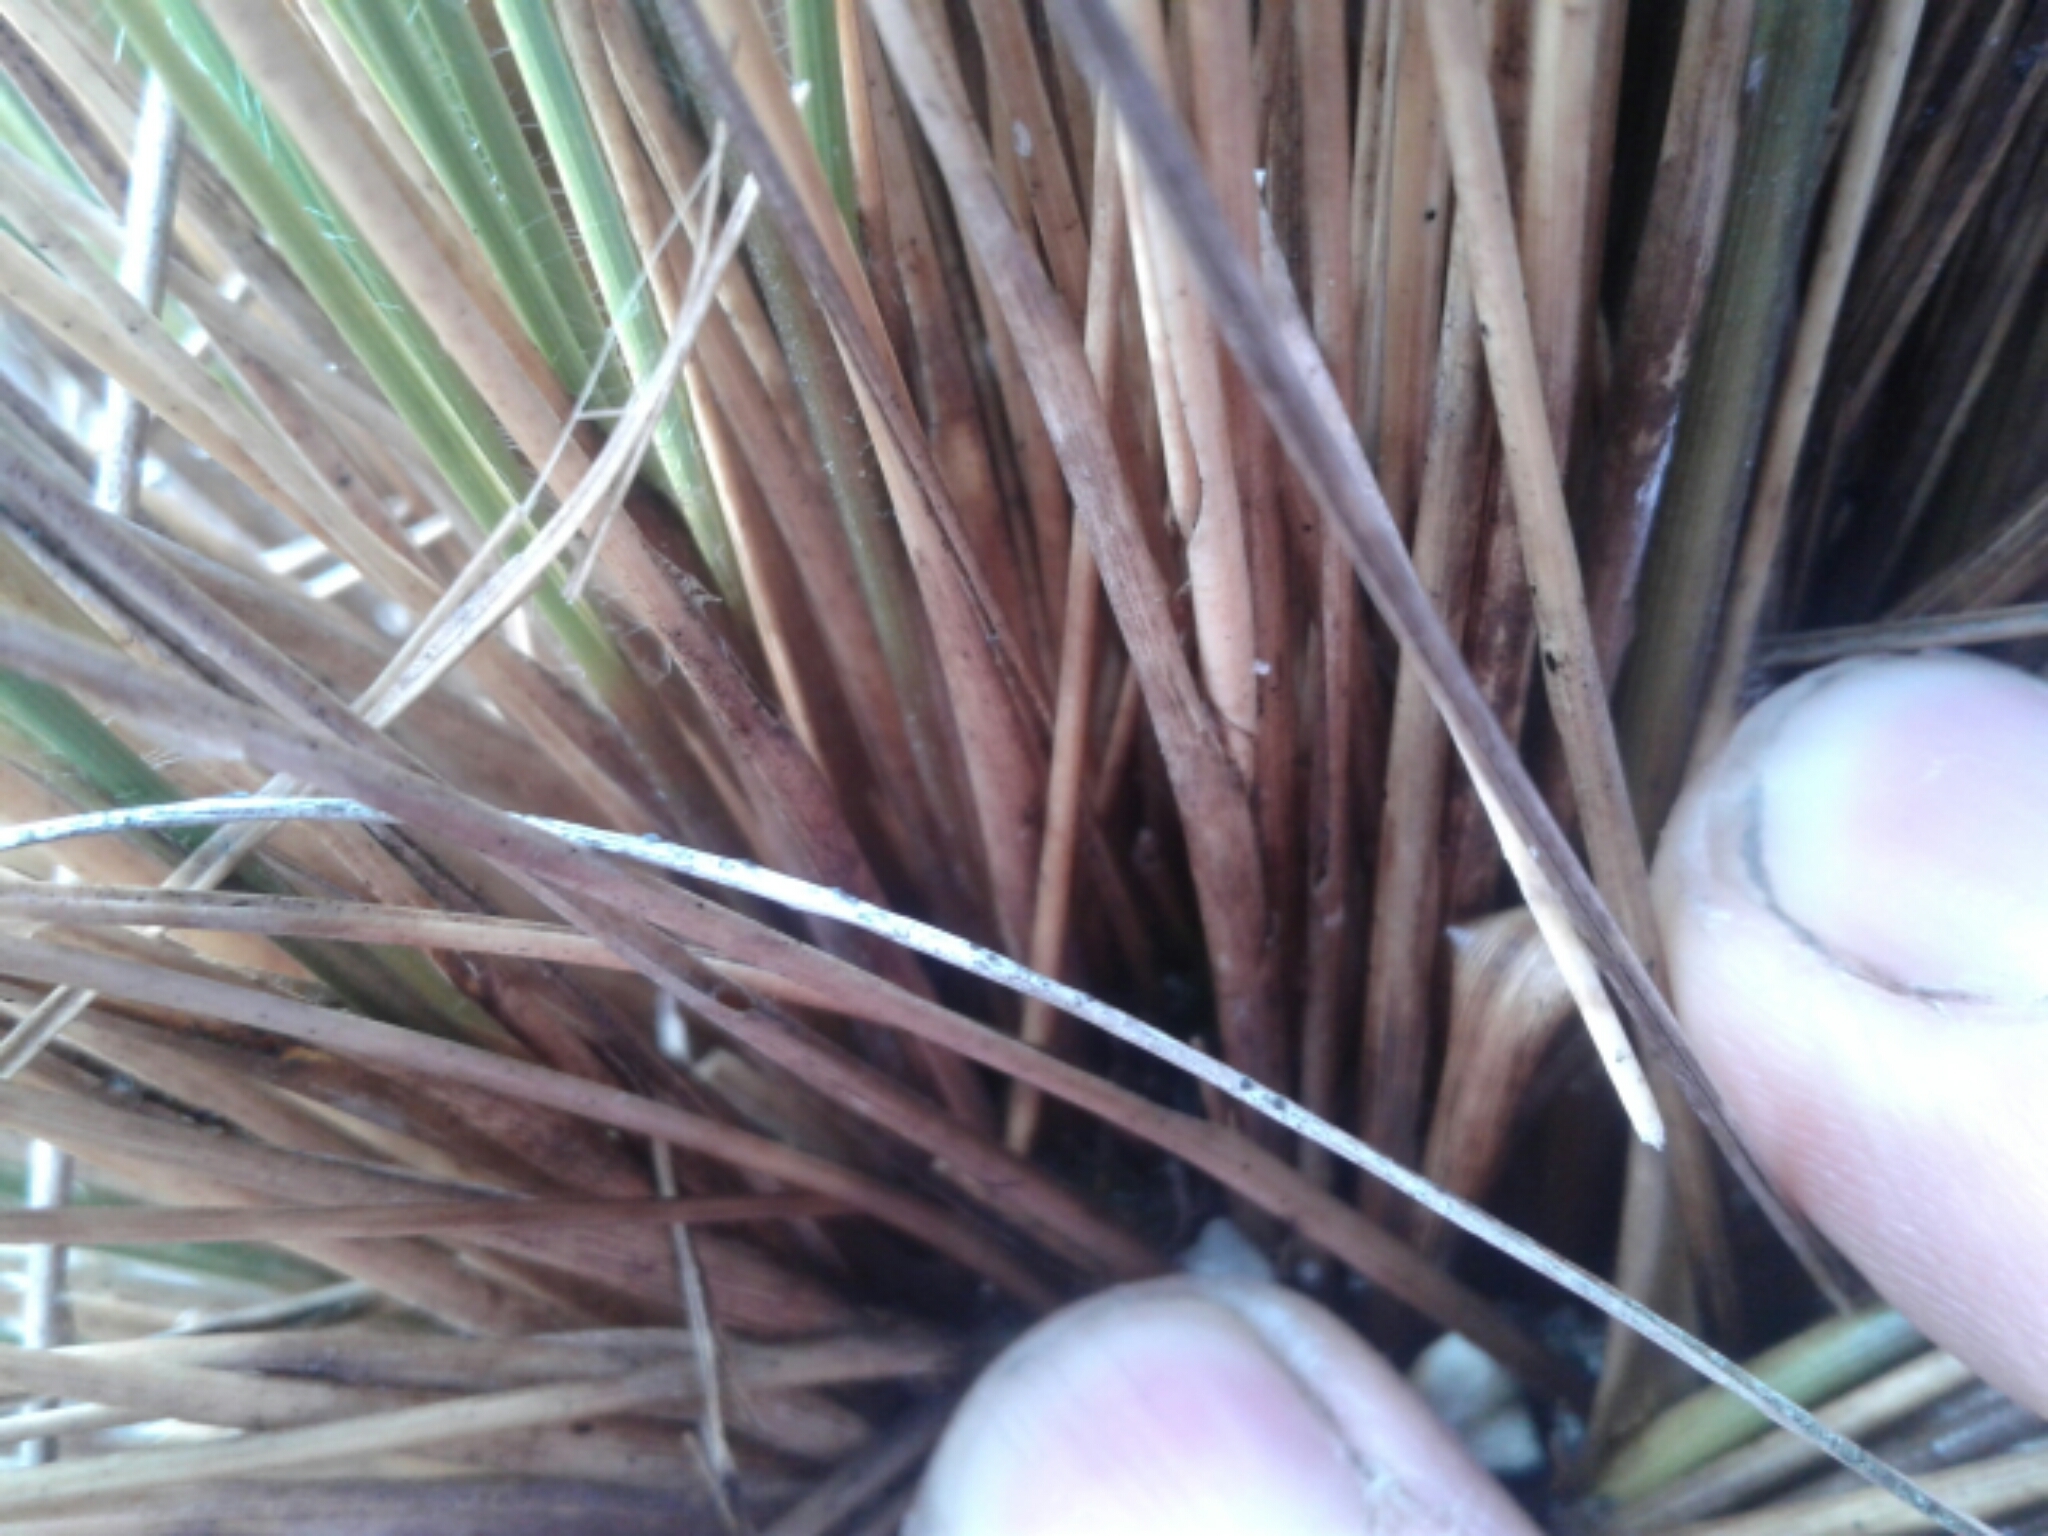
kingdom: Plantae
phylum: Tracheophyta
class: Liliopsida
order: Poales
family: Poaceae
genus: Chionochloa
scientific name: Chionochloa juncea
